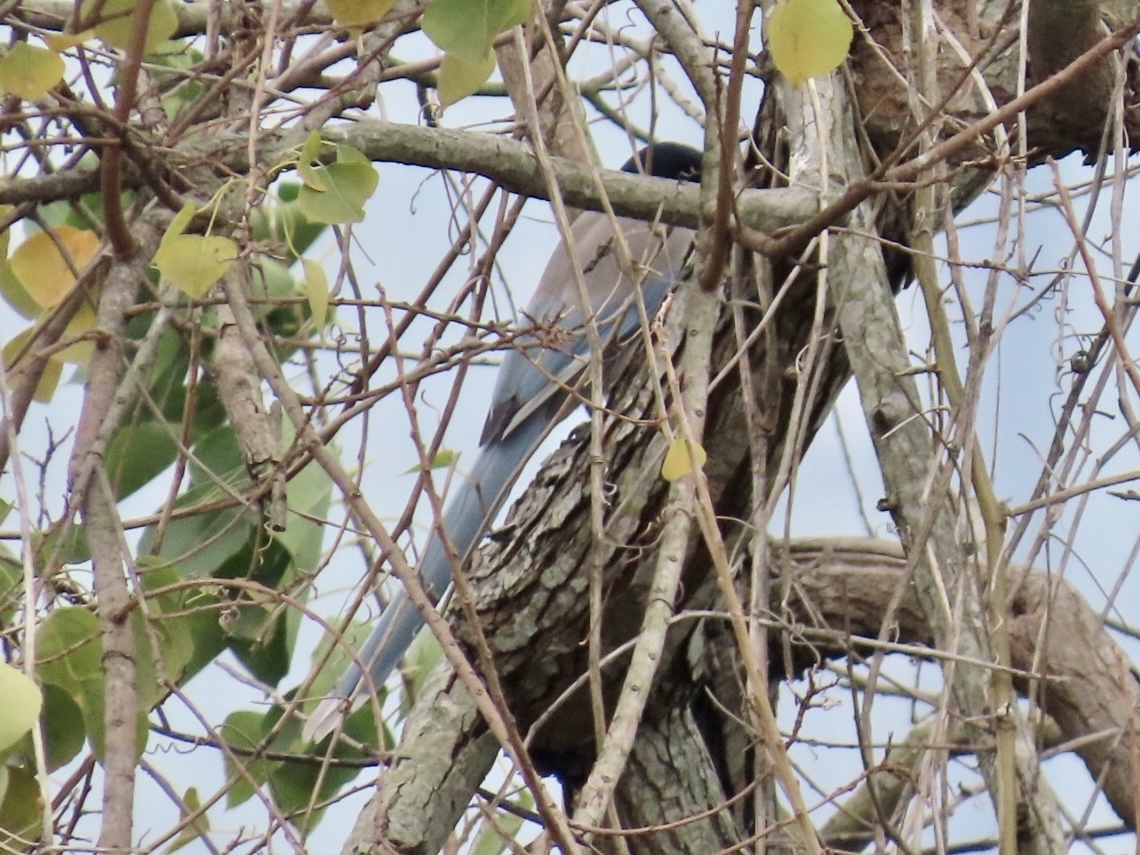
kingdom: Animalia
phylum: Chordata
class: Aves
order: Passeriformes
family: Corvidae
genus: Cyanopica
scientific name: Cyanopica cyanus
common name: Azure-winged magpie
